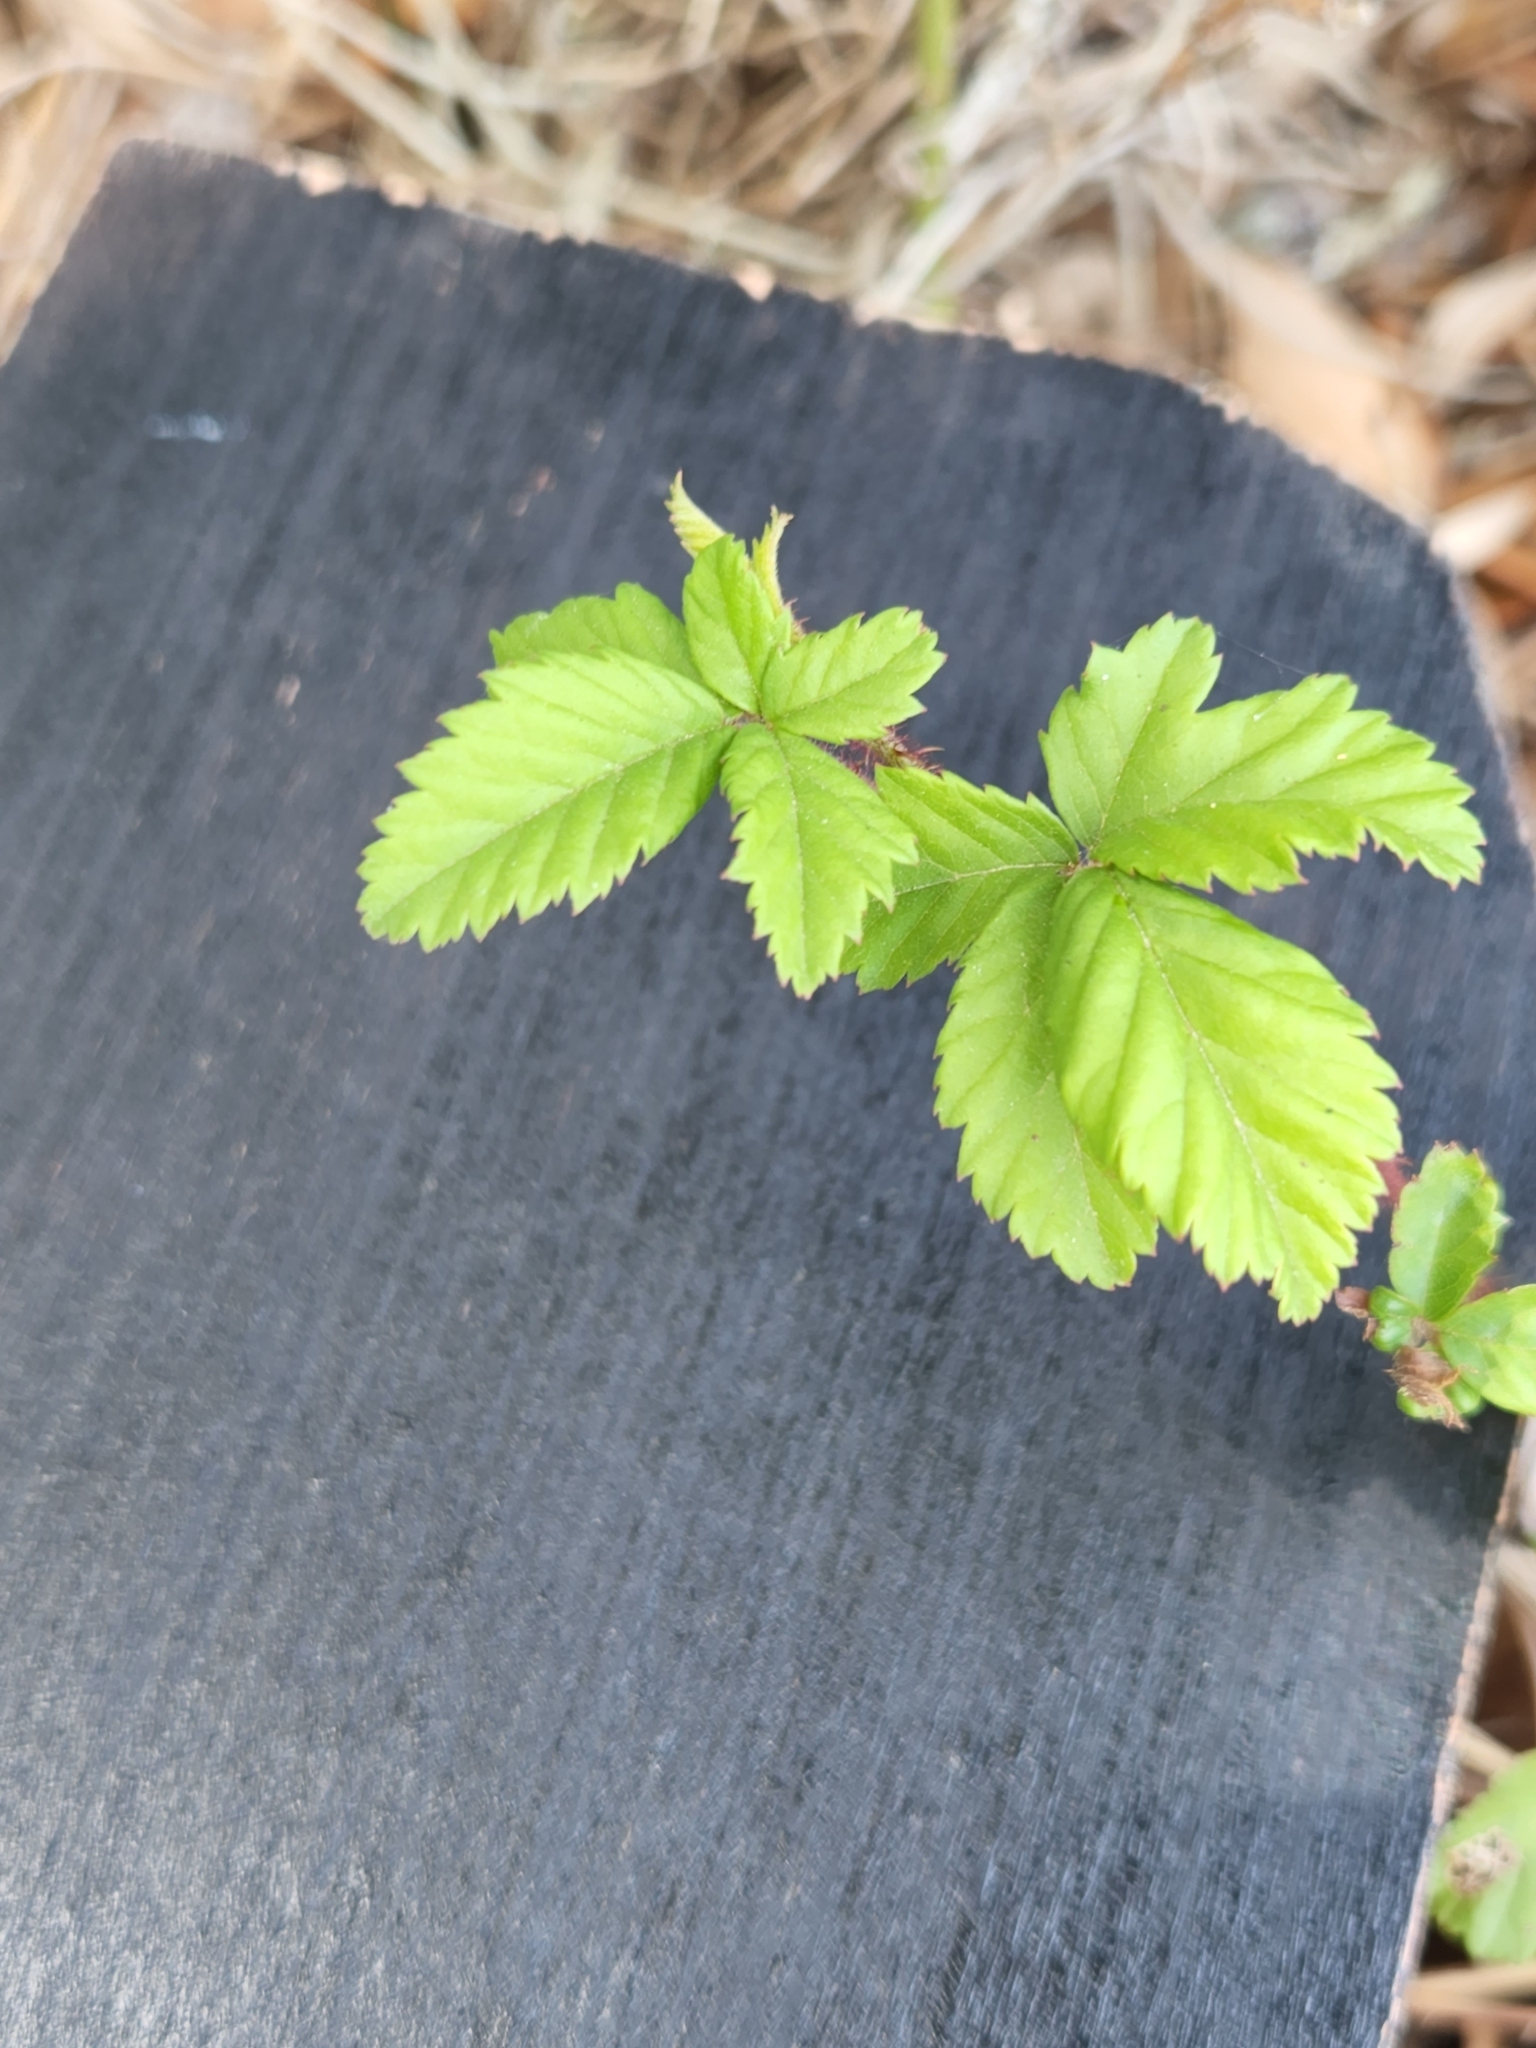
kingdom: Plantae
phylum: Tracheophyta
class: Magnoliopsida
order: Rosales
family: Rosaceae
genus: Rubus
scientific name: Rubus trivialis
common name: Southern dewberry
